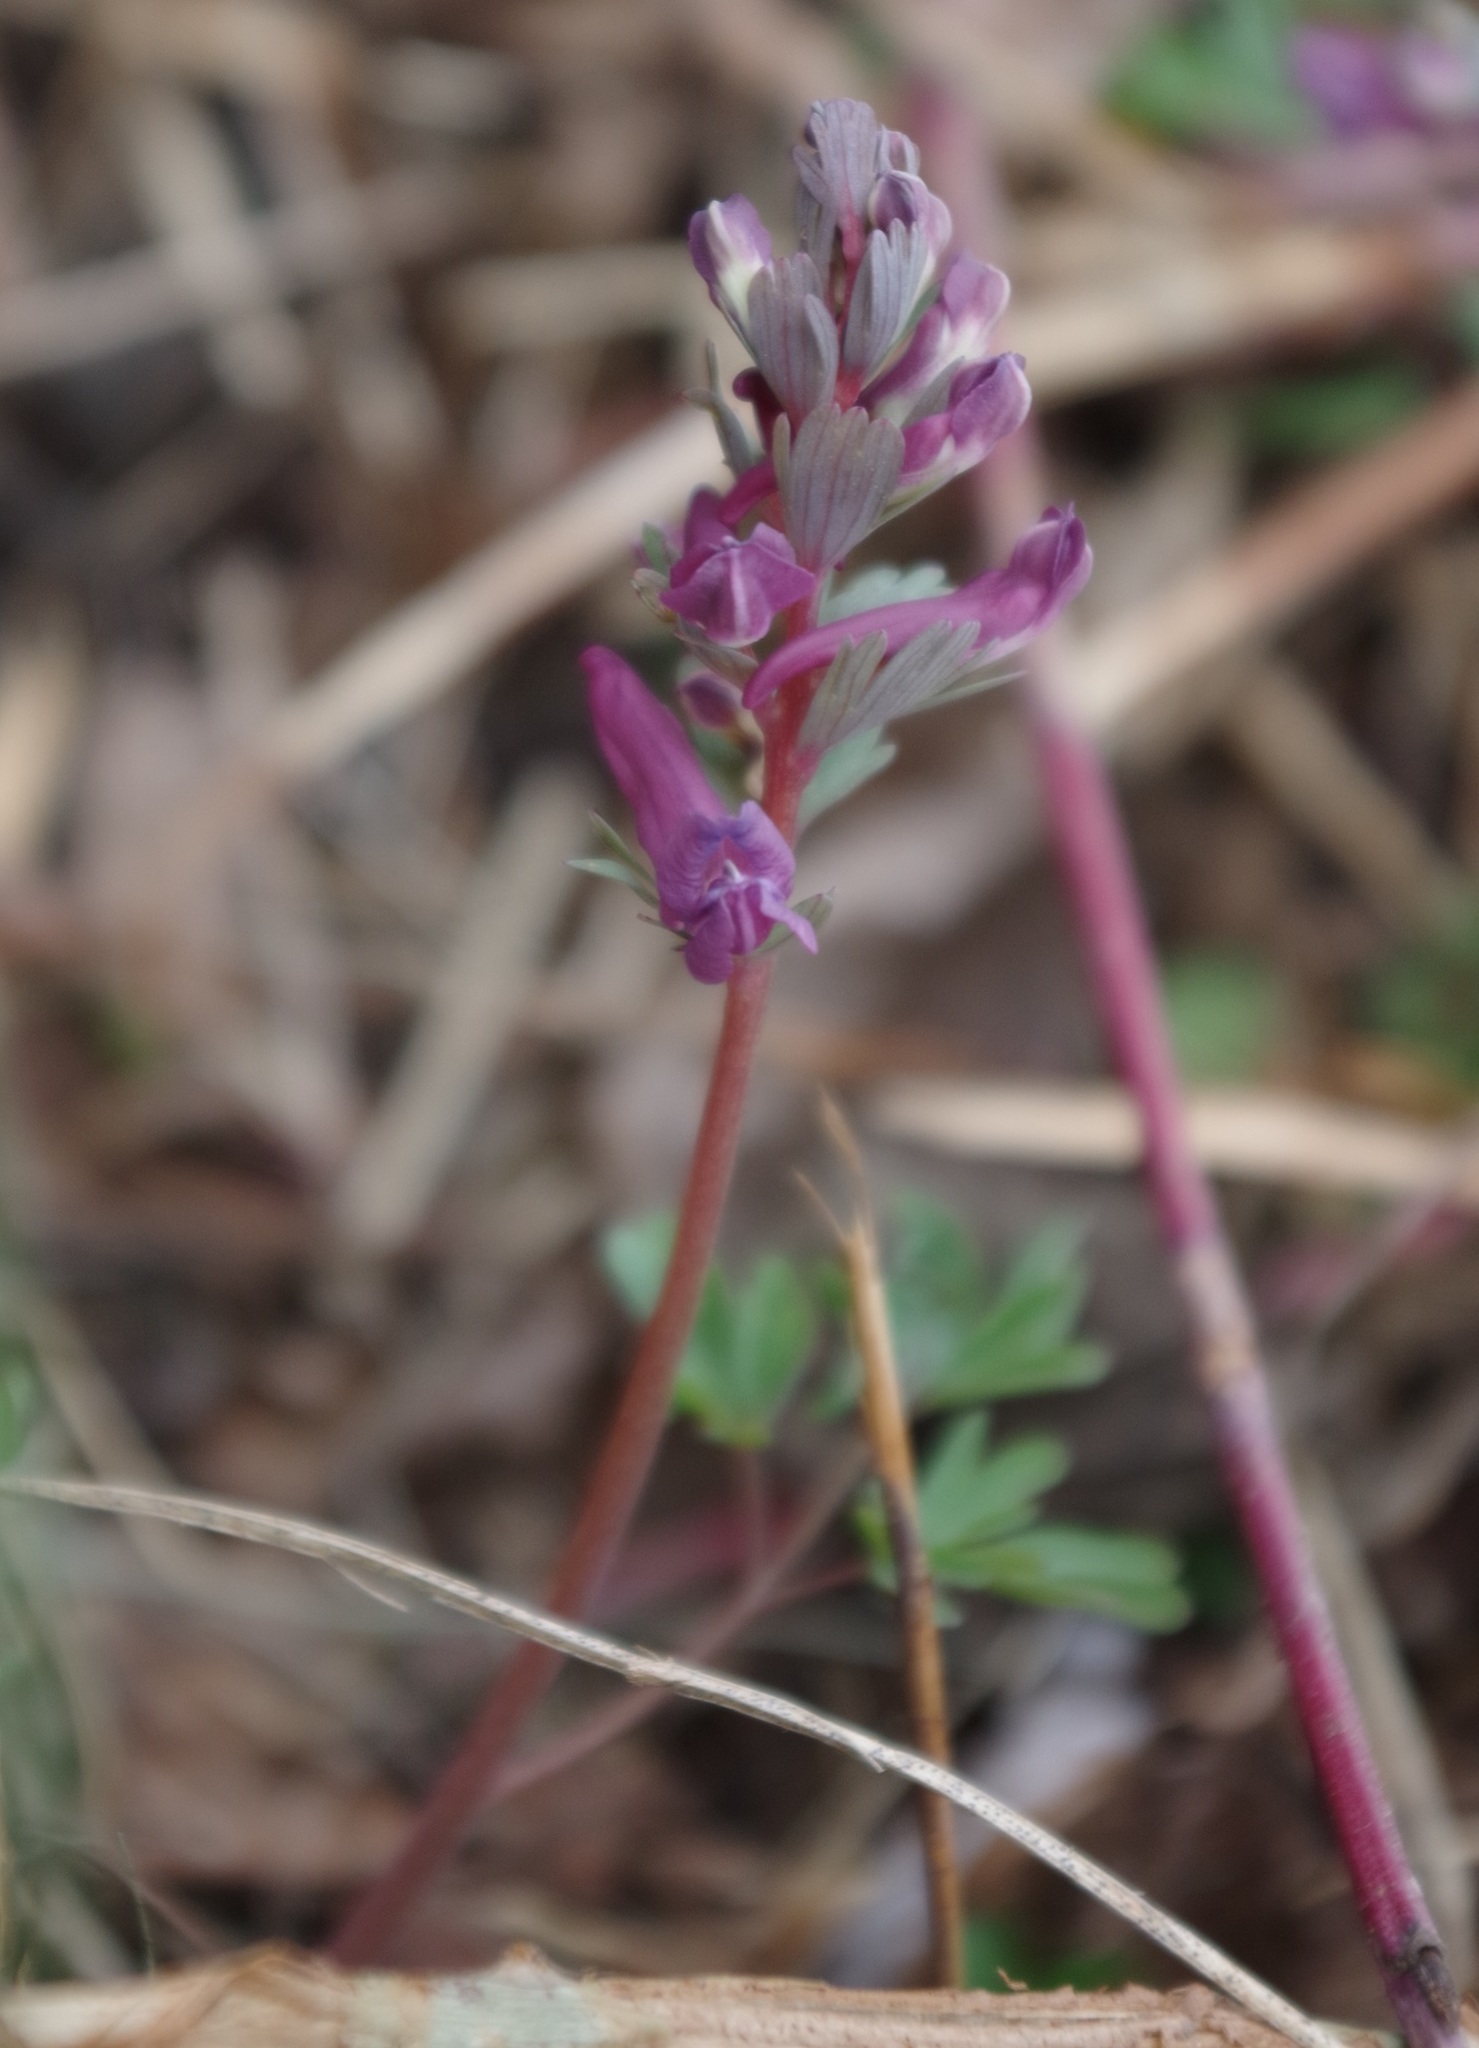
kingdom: Plantae
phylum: Tracheophyta
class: Magnoliopsida
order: Ranunculales
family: Papaveraceae
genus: Corydalis
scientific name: Corydalis solida
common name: Bird-in-a-bush
